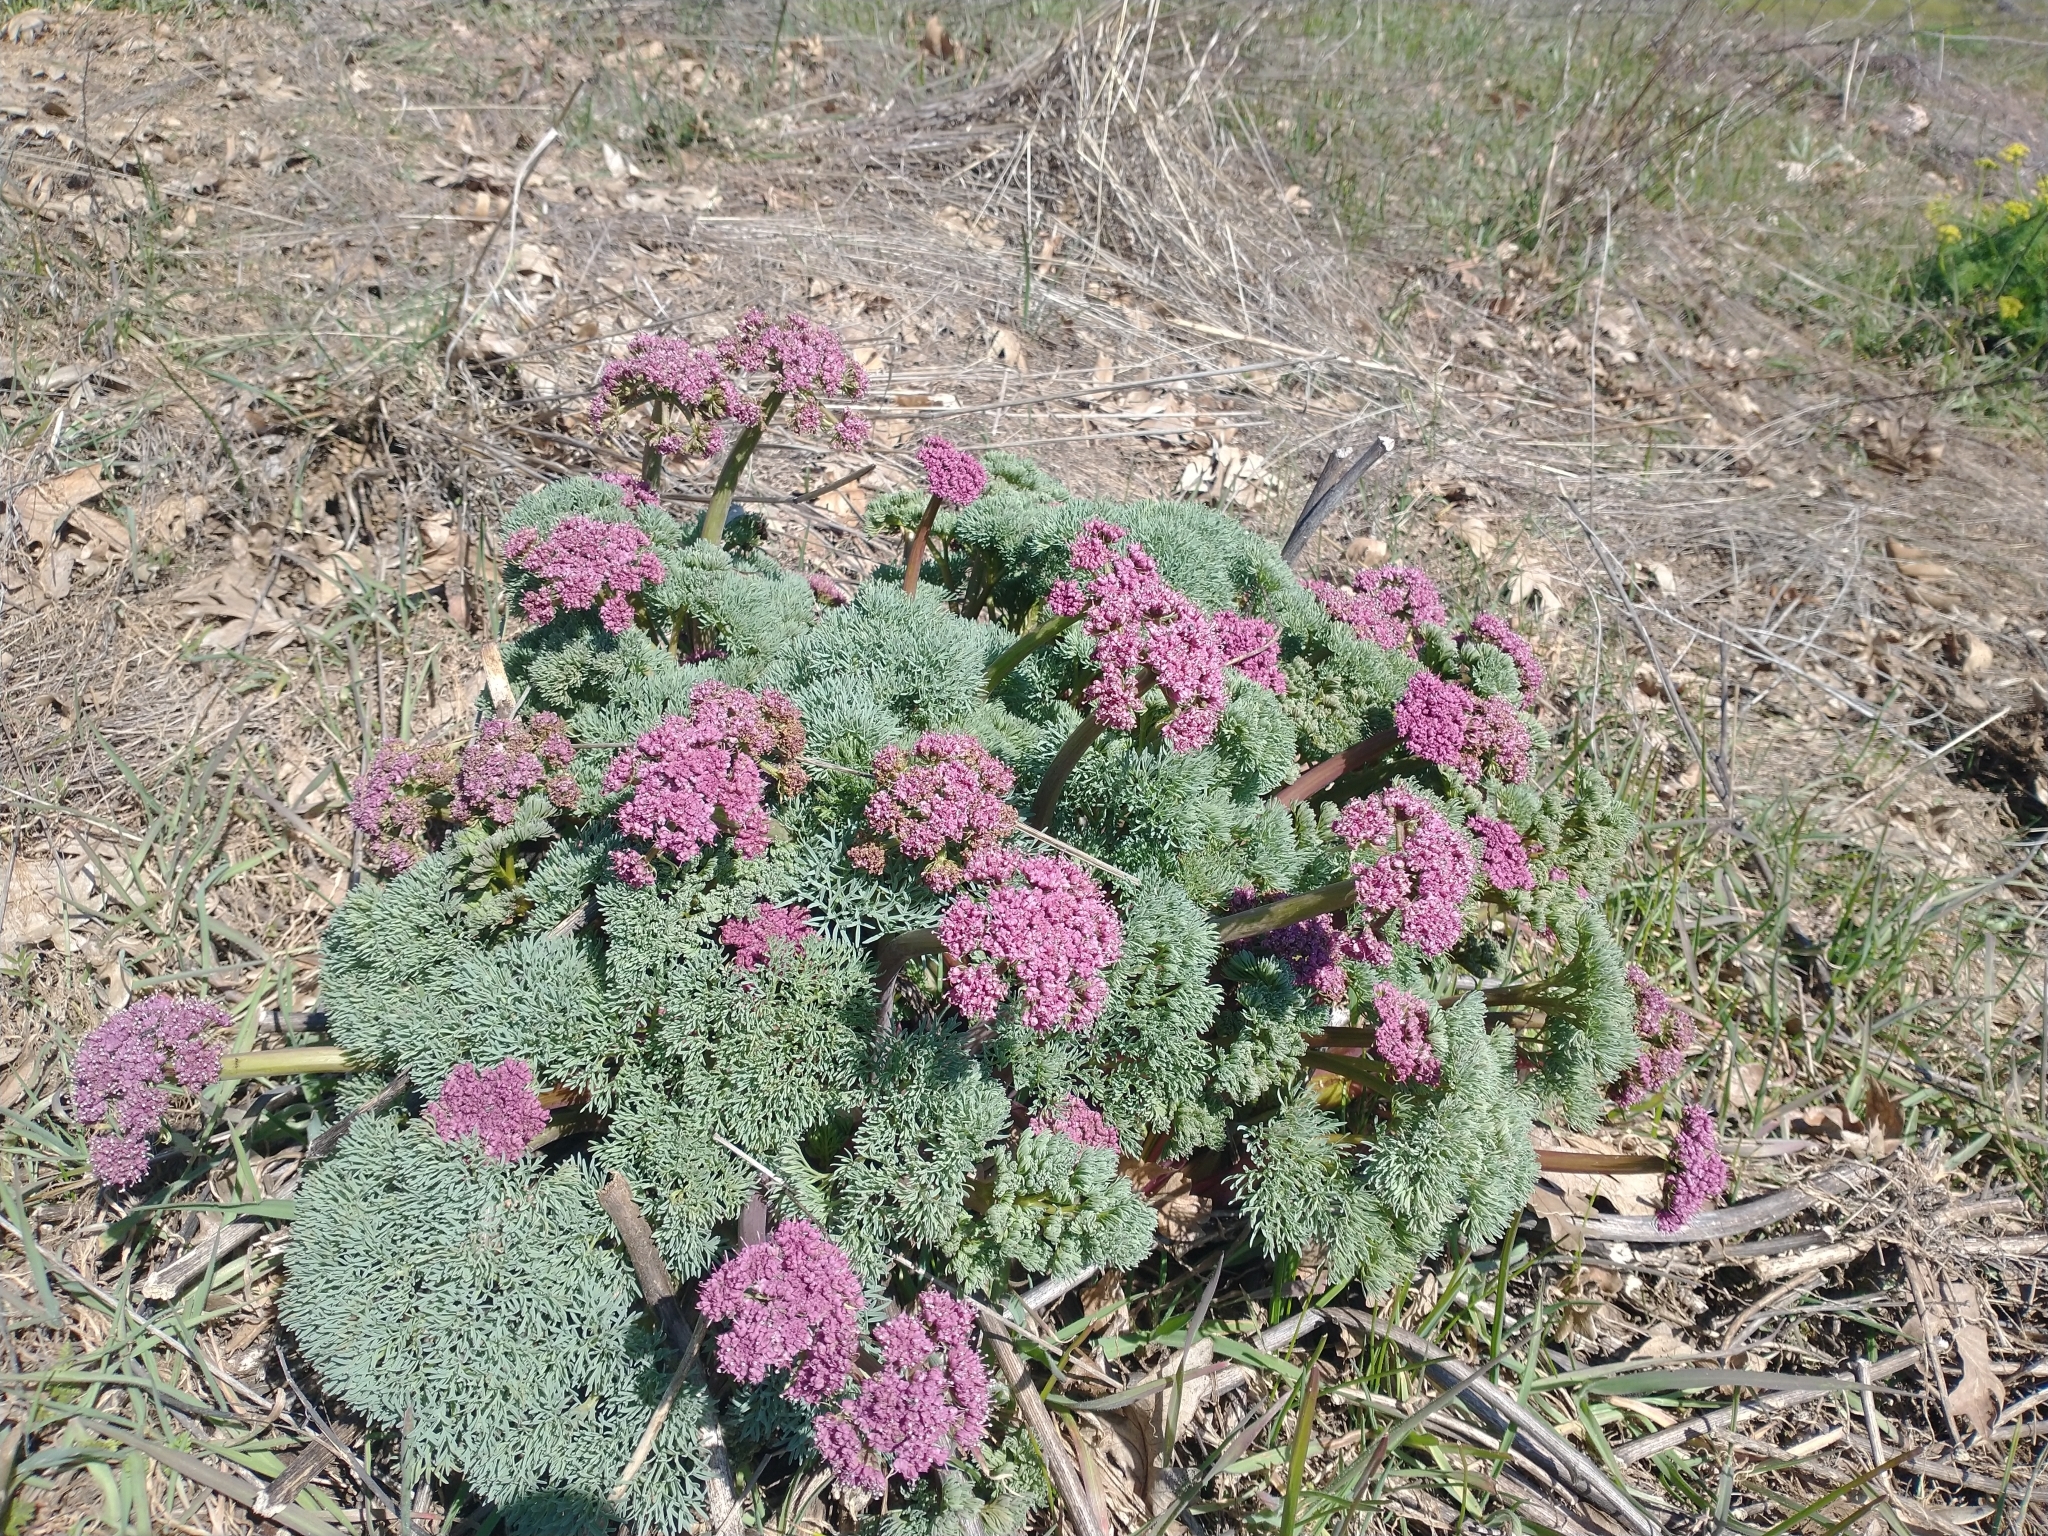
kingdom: Plantae
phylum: Tracheophyta
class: Magnoliopsida
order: Apiales
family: Apiaceae
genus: Lomatium
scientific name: Lomatium columbianum
